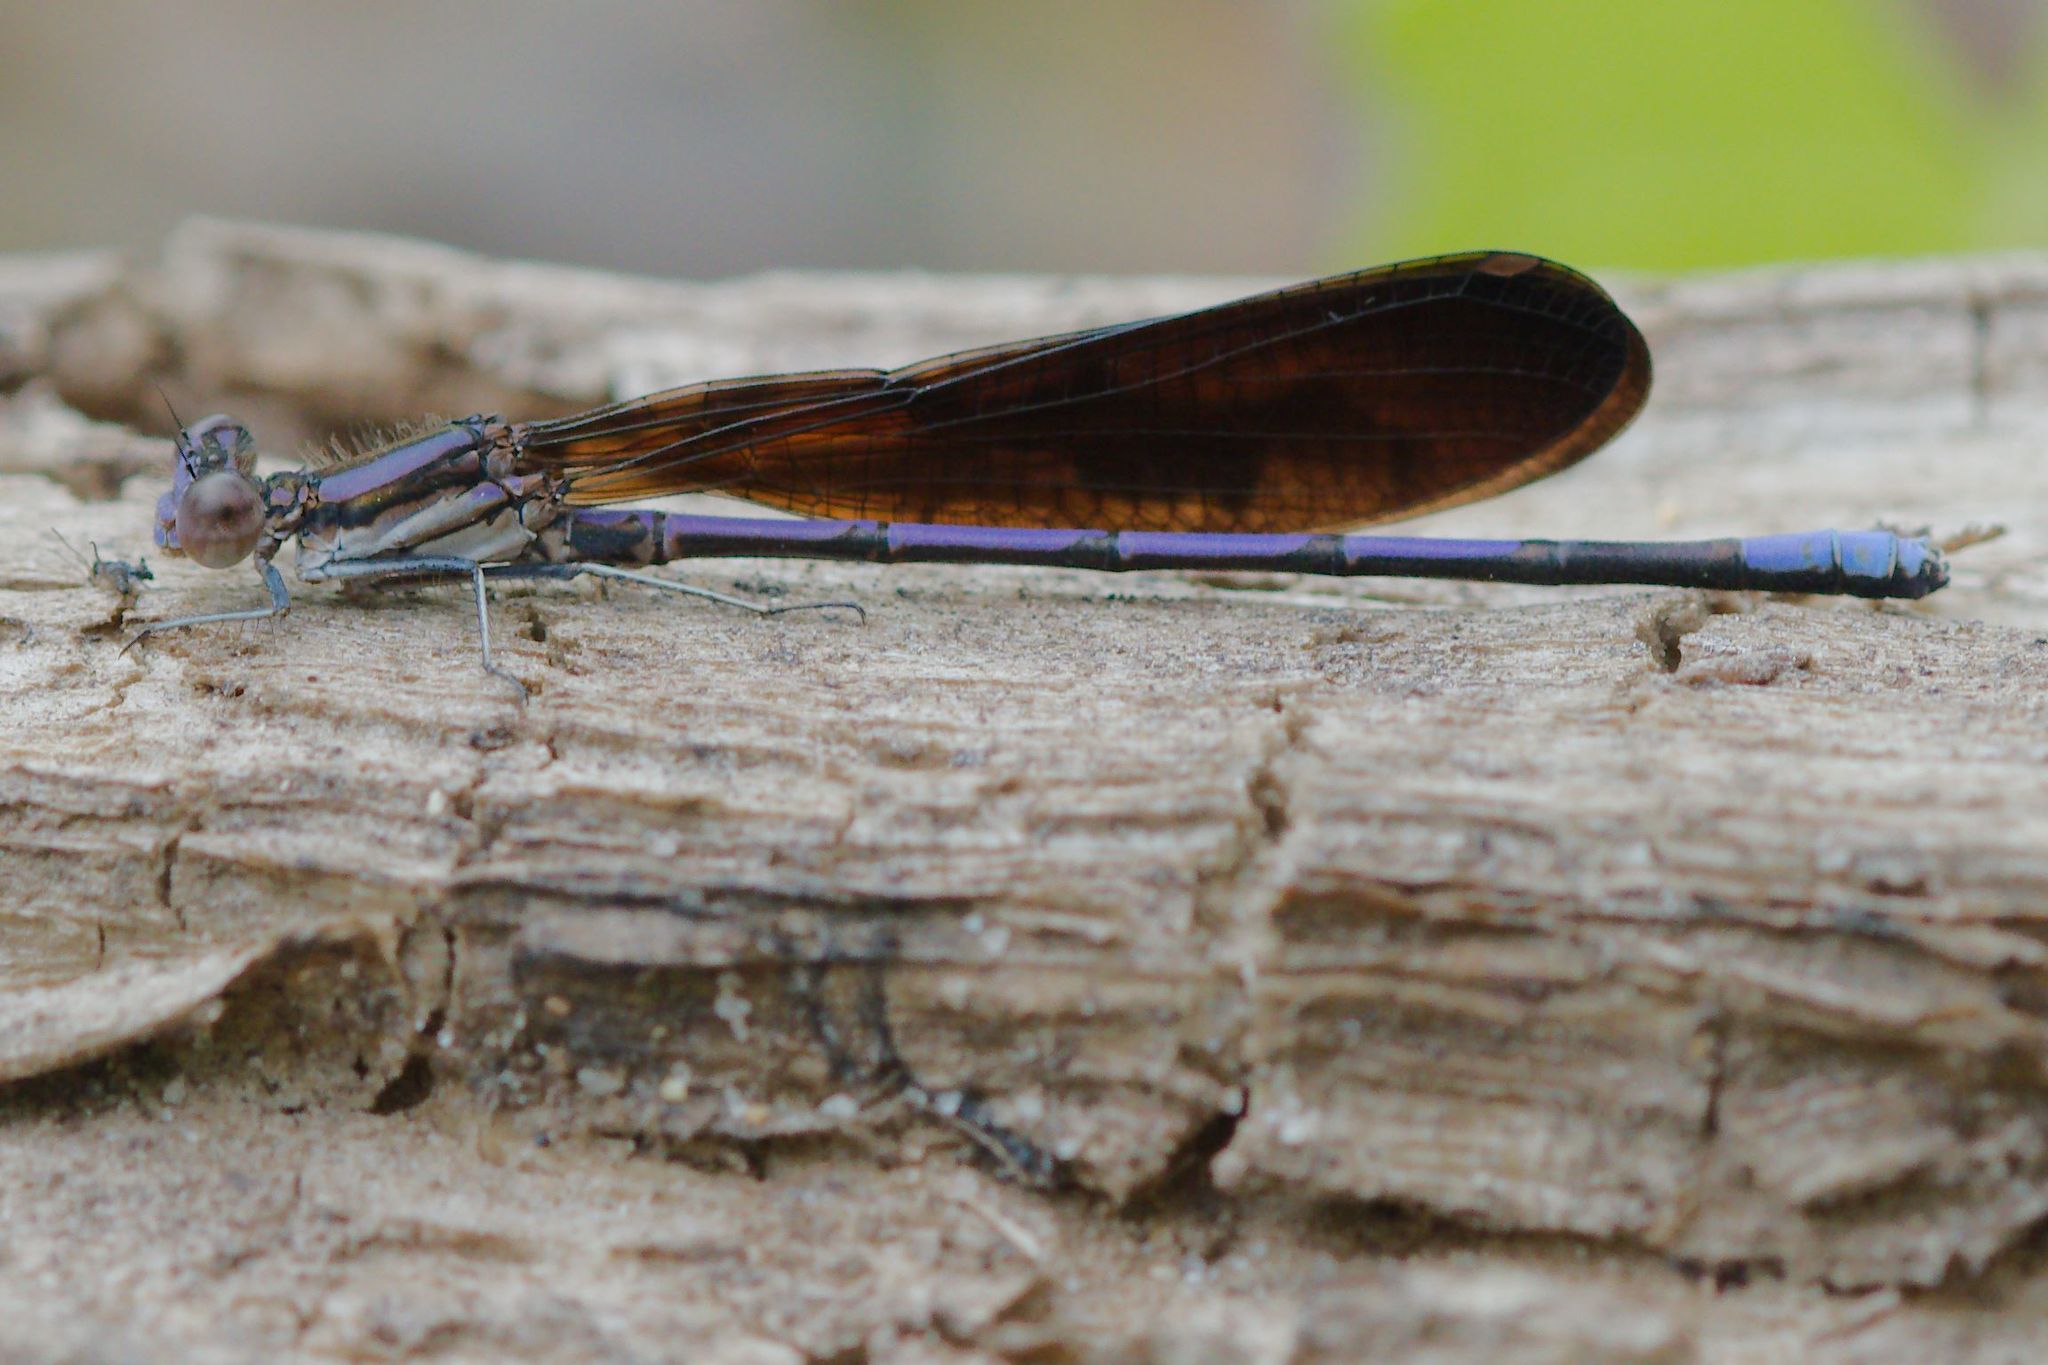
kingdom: Animalia
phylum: Arthropoda
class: Insecta
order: Odonata
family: Coenagrionidae
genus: Argia
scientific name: Argia fumipennis
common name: Variable dancer
